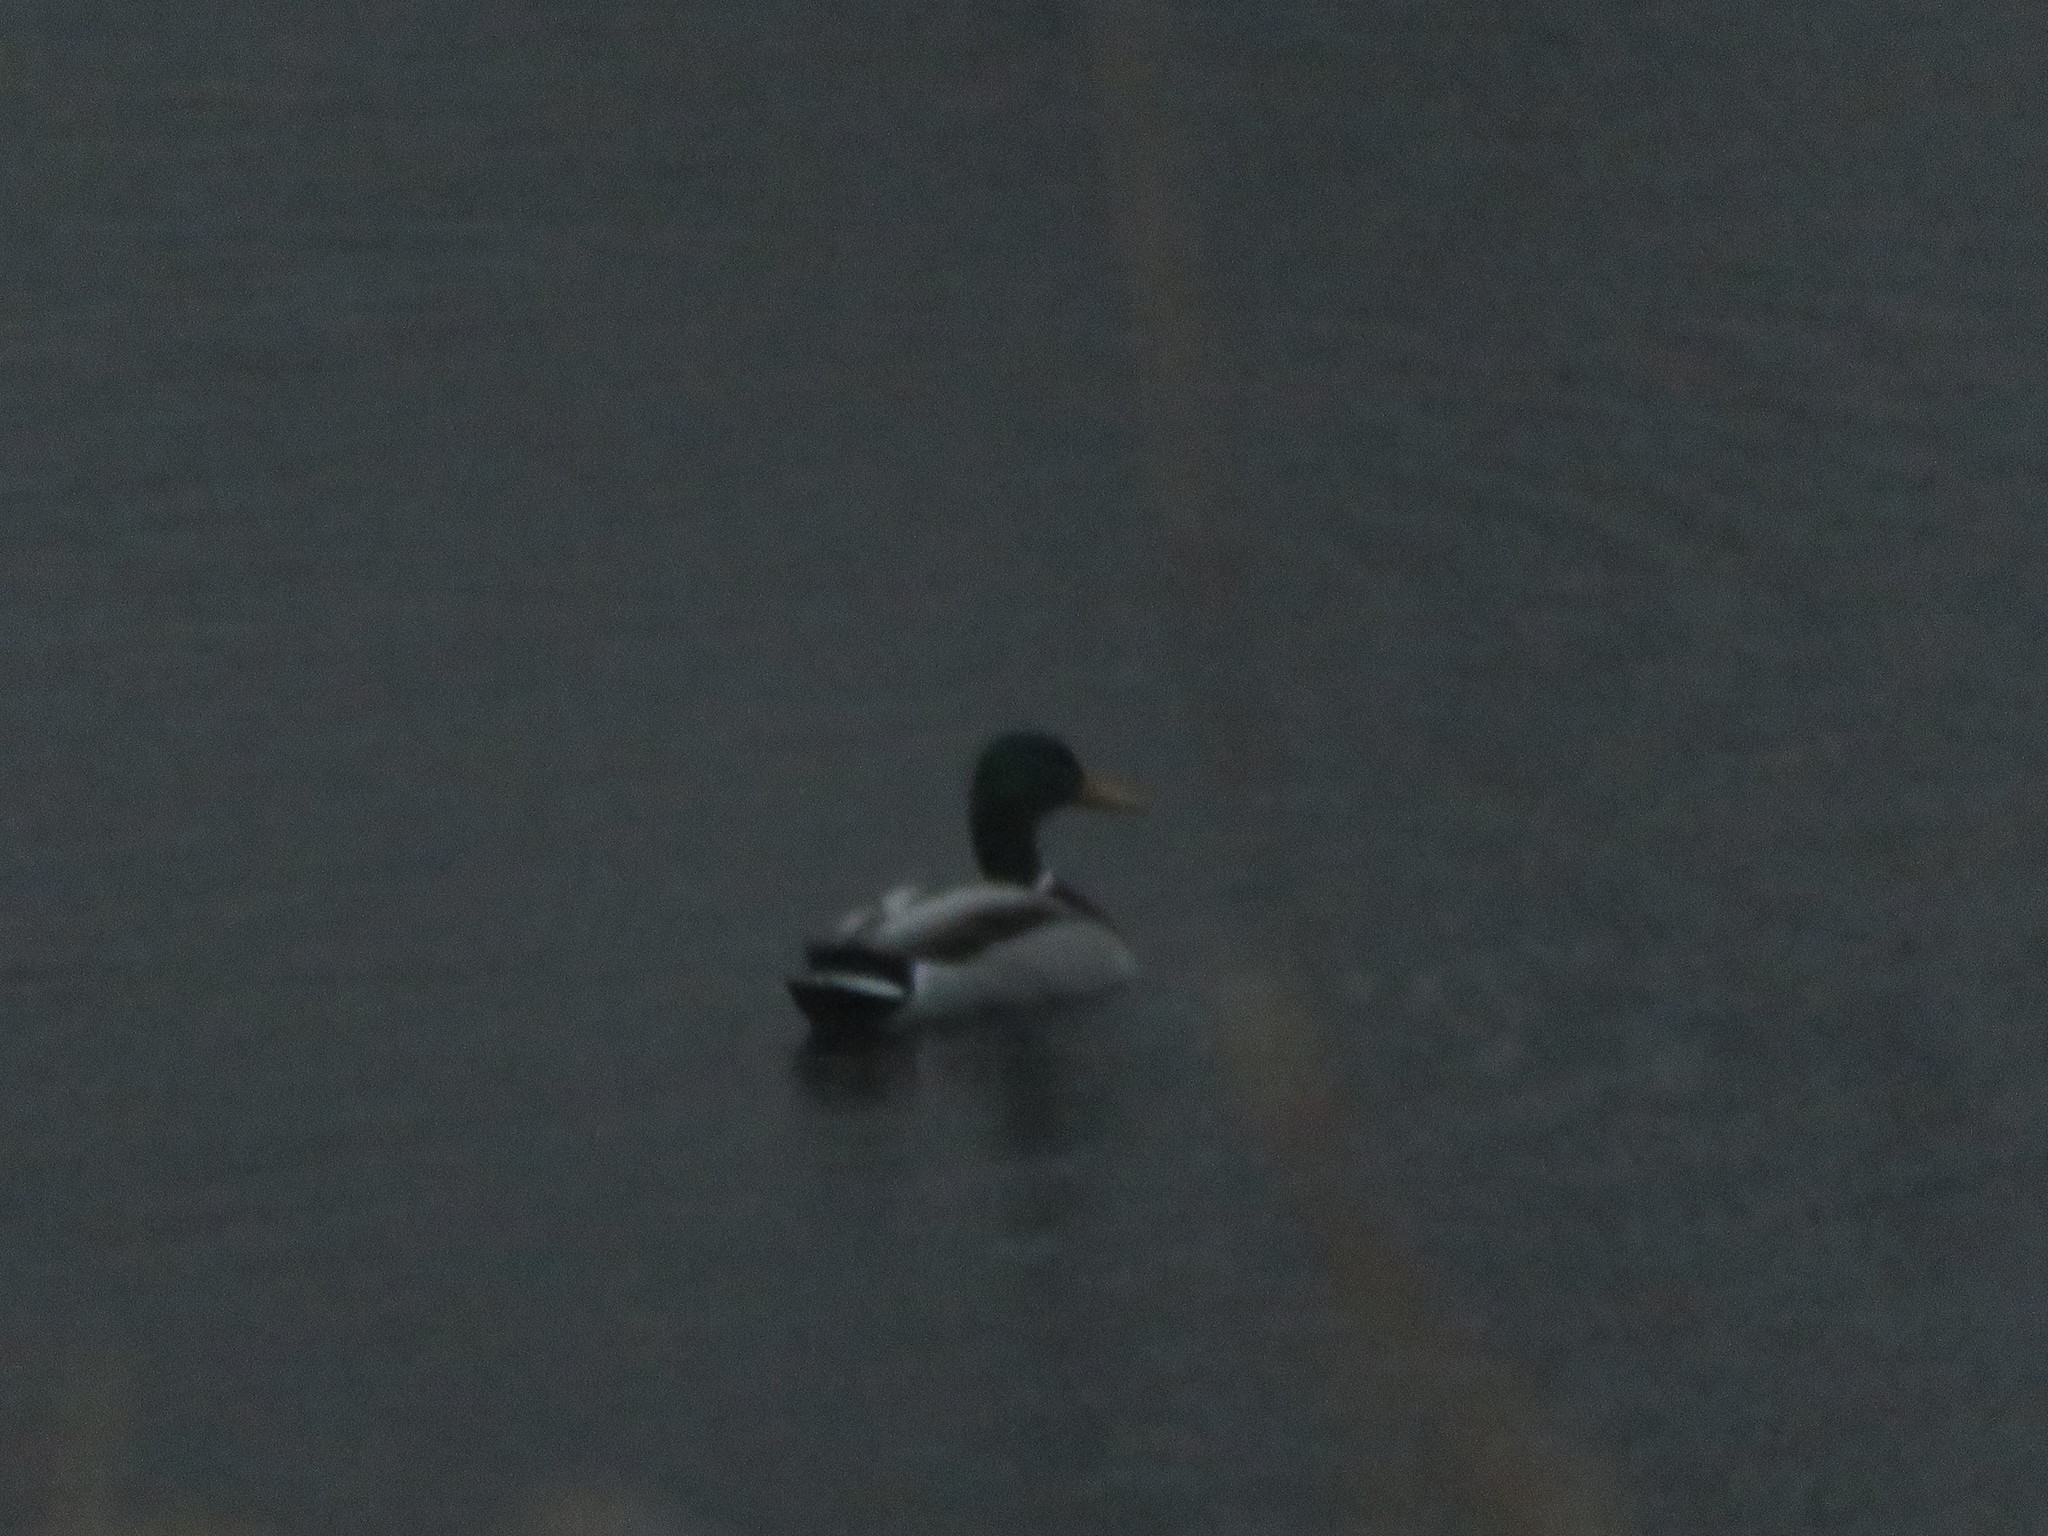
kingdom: Animalia
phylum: Chordata
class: Aves
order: Anseriformes
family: Anatidae
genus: Anas
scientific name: Anas platyrhynchos
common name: Mallard
